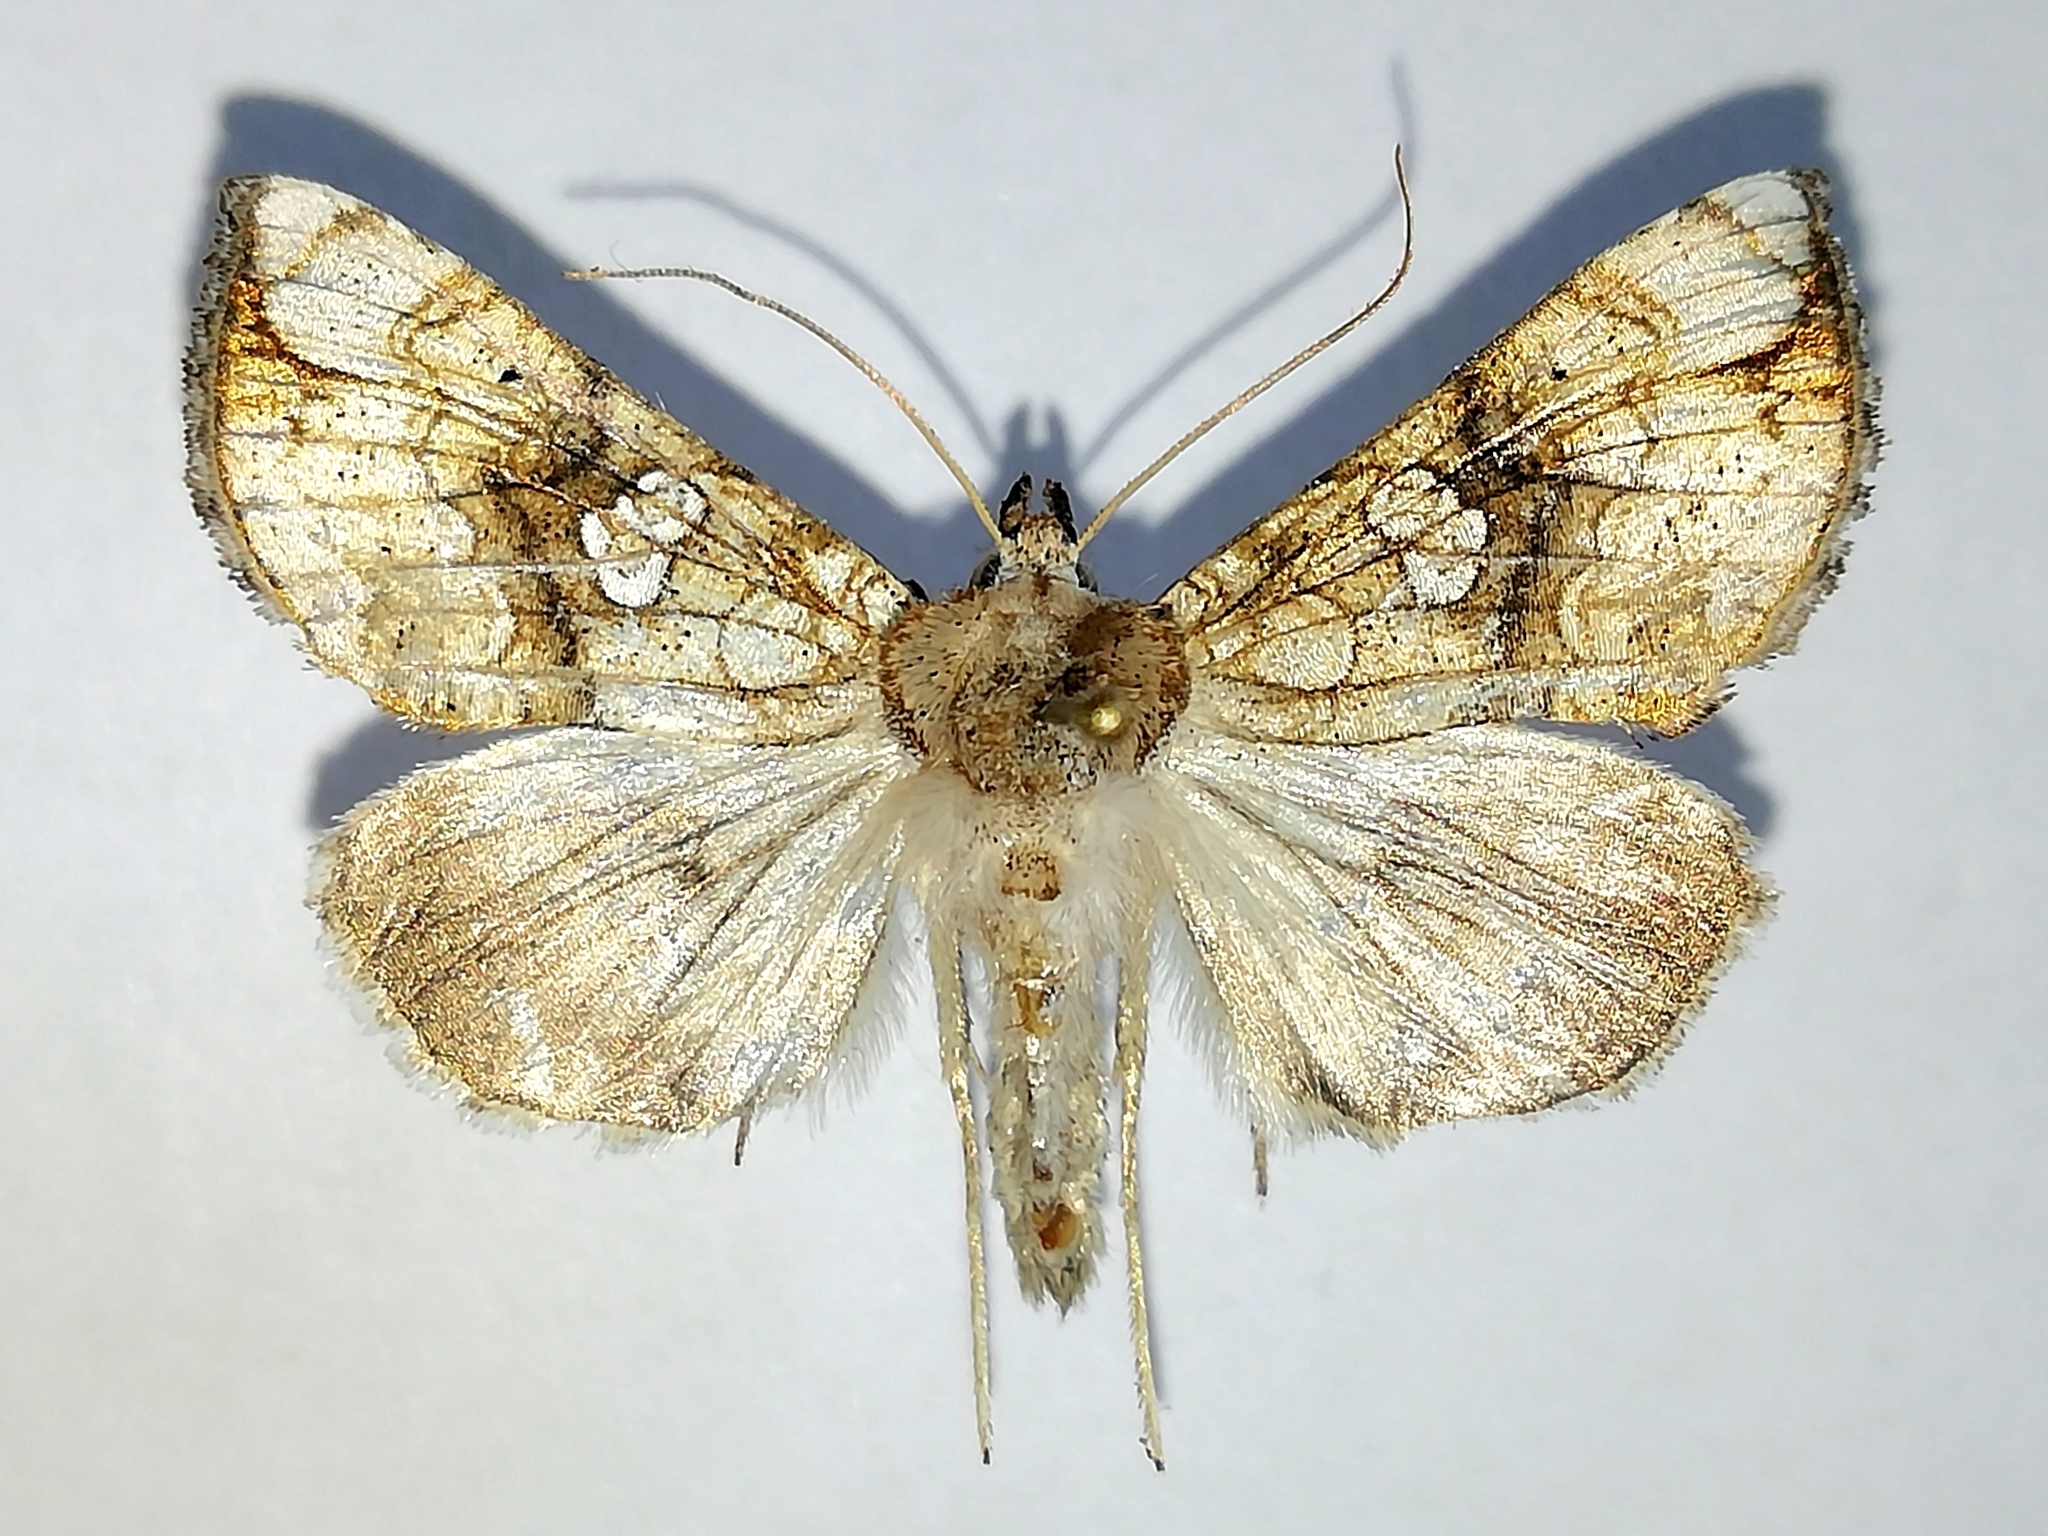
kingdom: Animalia
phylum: Arthropoda
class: Insecta
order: Lepidoptera
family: Noctuidae
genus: Polychrysia
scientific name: Polychrysia esmeralda
